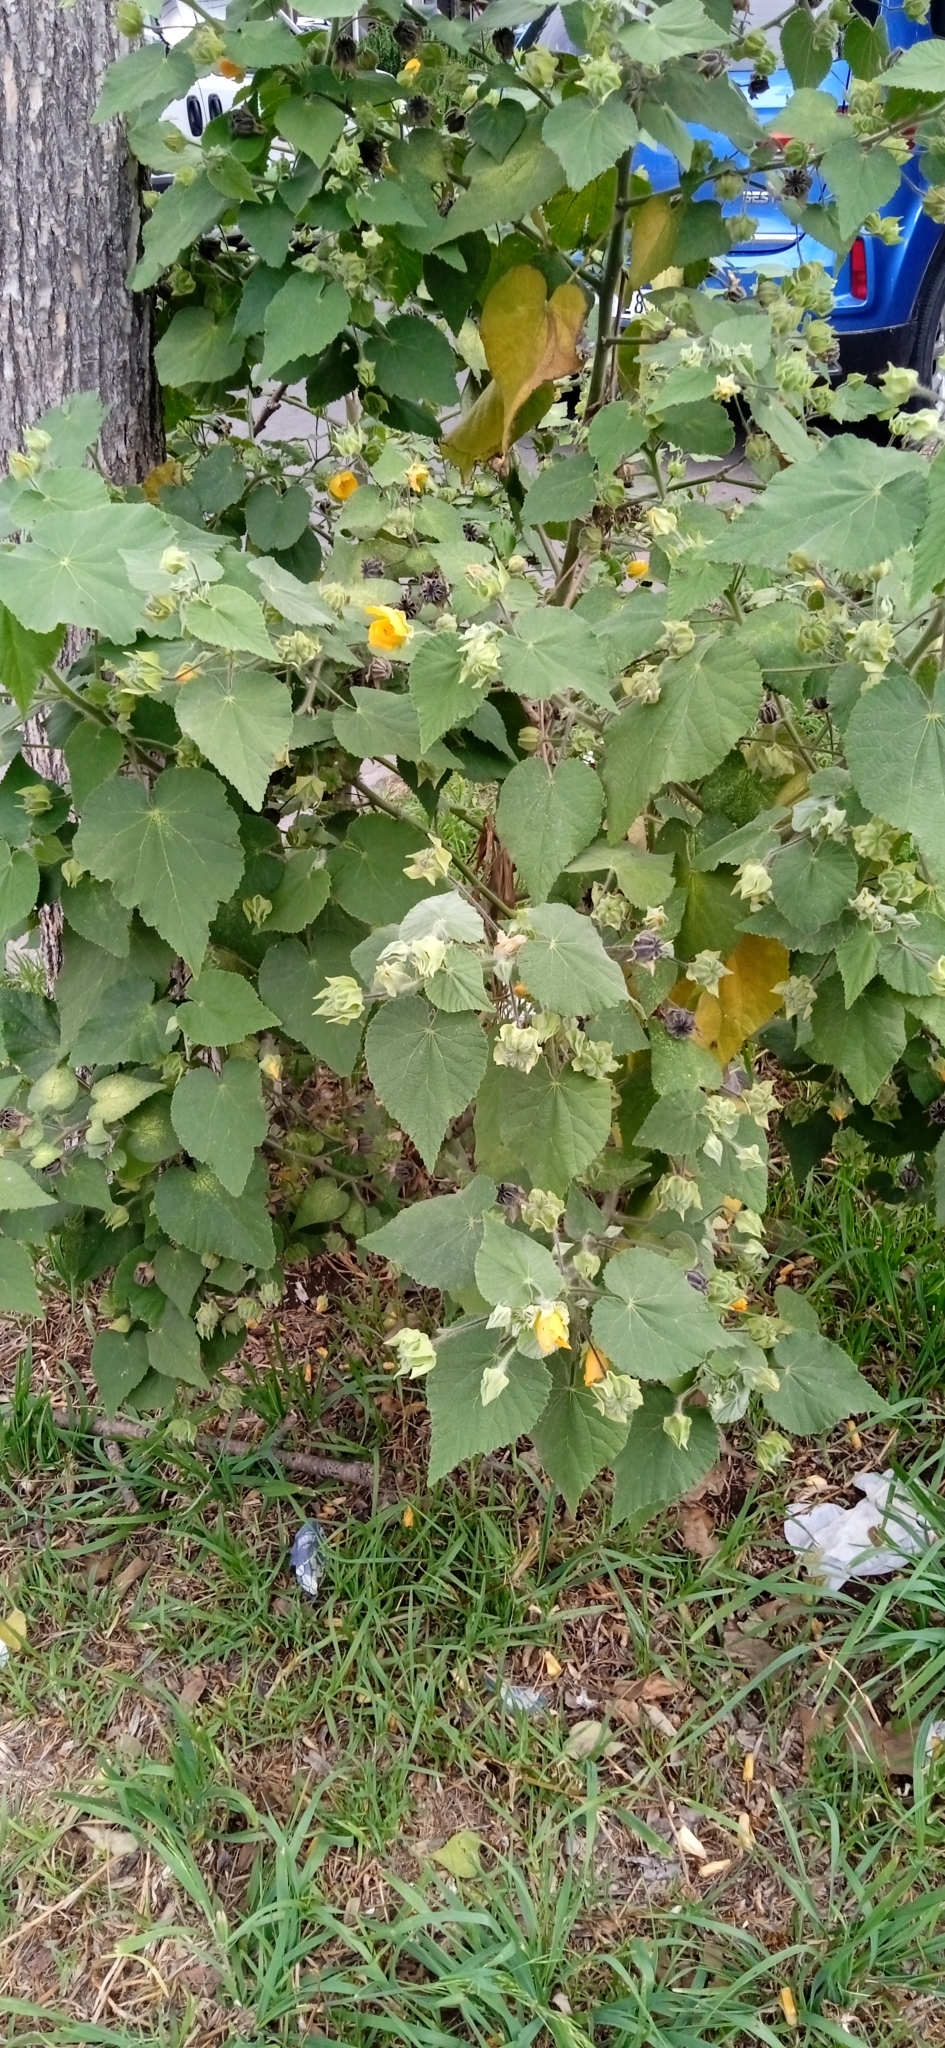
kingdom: Plantae
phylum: Tracheophyta
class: Magnoliopsida
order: Malvales
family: Malvaceae
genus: Abutilon
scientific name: Abutilon grandifolium
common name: Hairy abutilon
